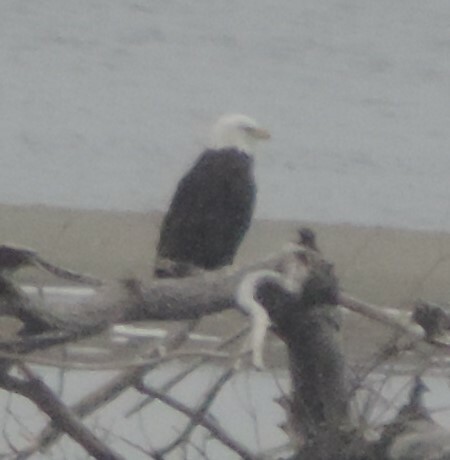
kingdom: Animalia
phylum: Chordata
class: Aves
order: Accipitriformes
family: Accipitridae
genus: Haliaeetus
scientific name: Haliaeetus leucocephalus
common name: Bald eagle
